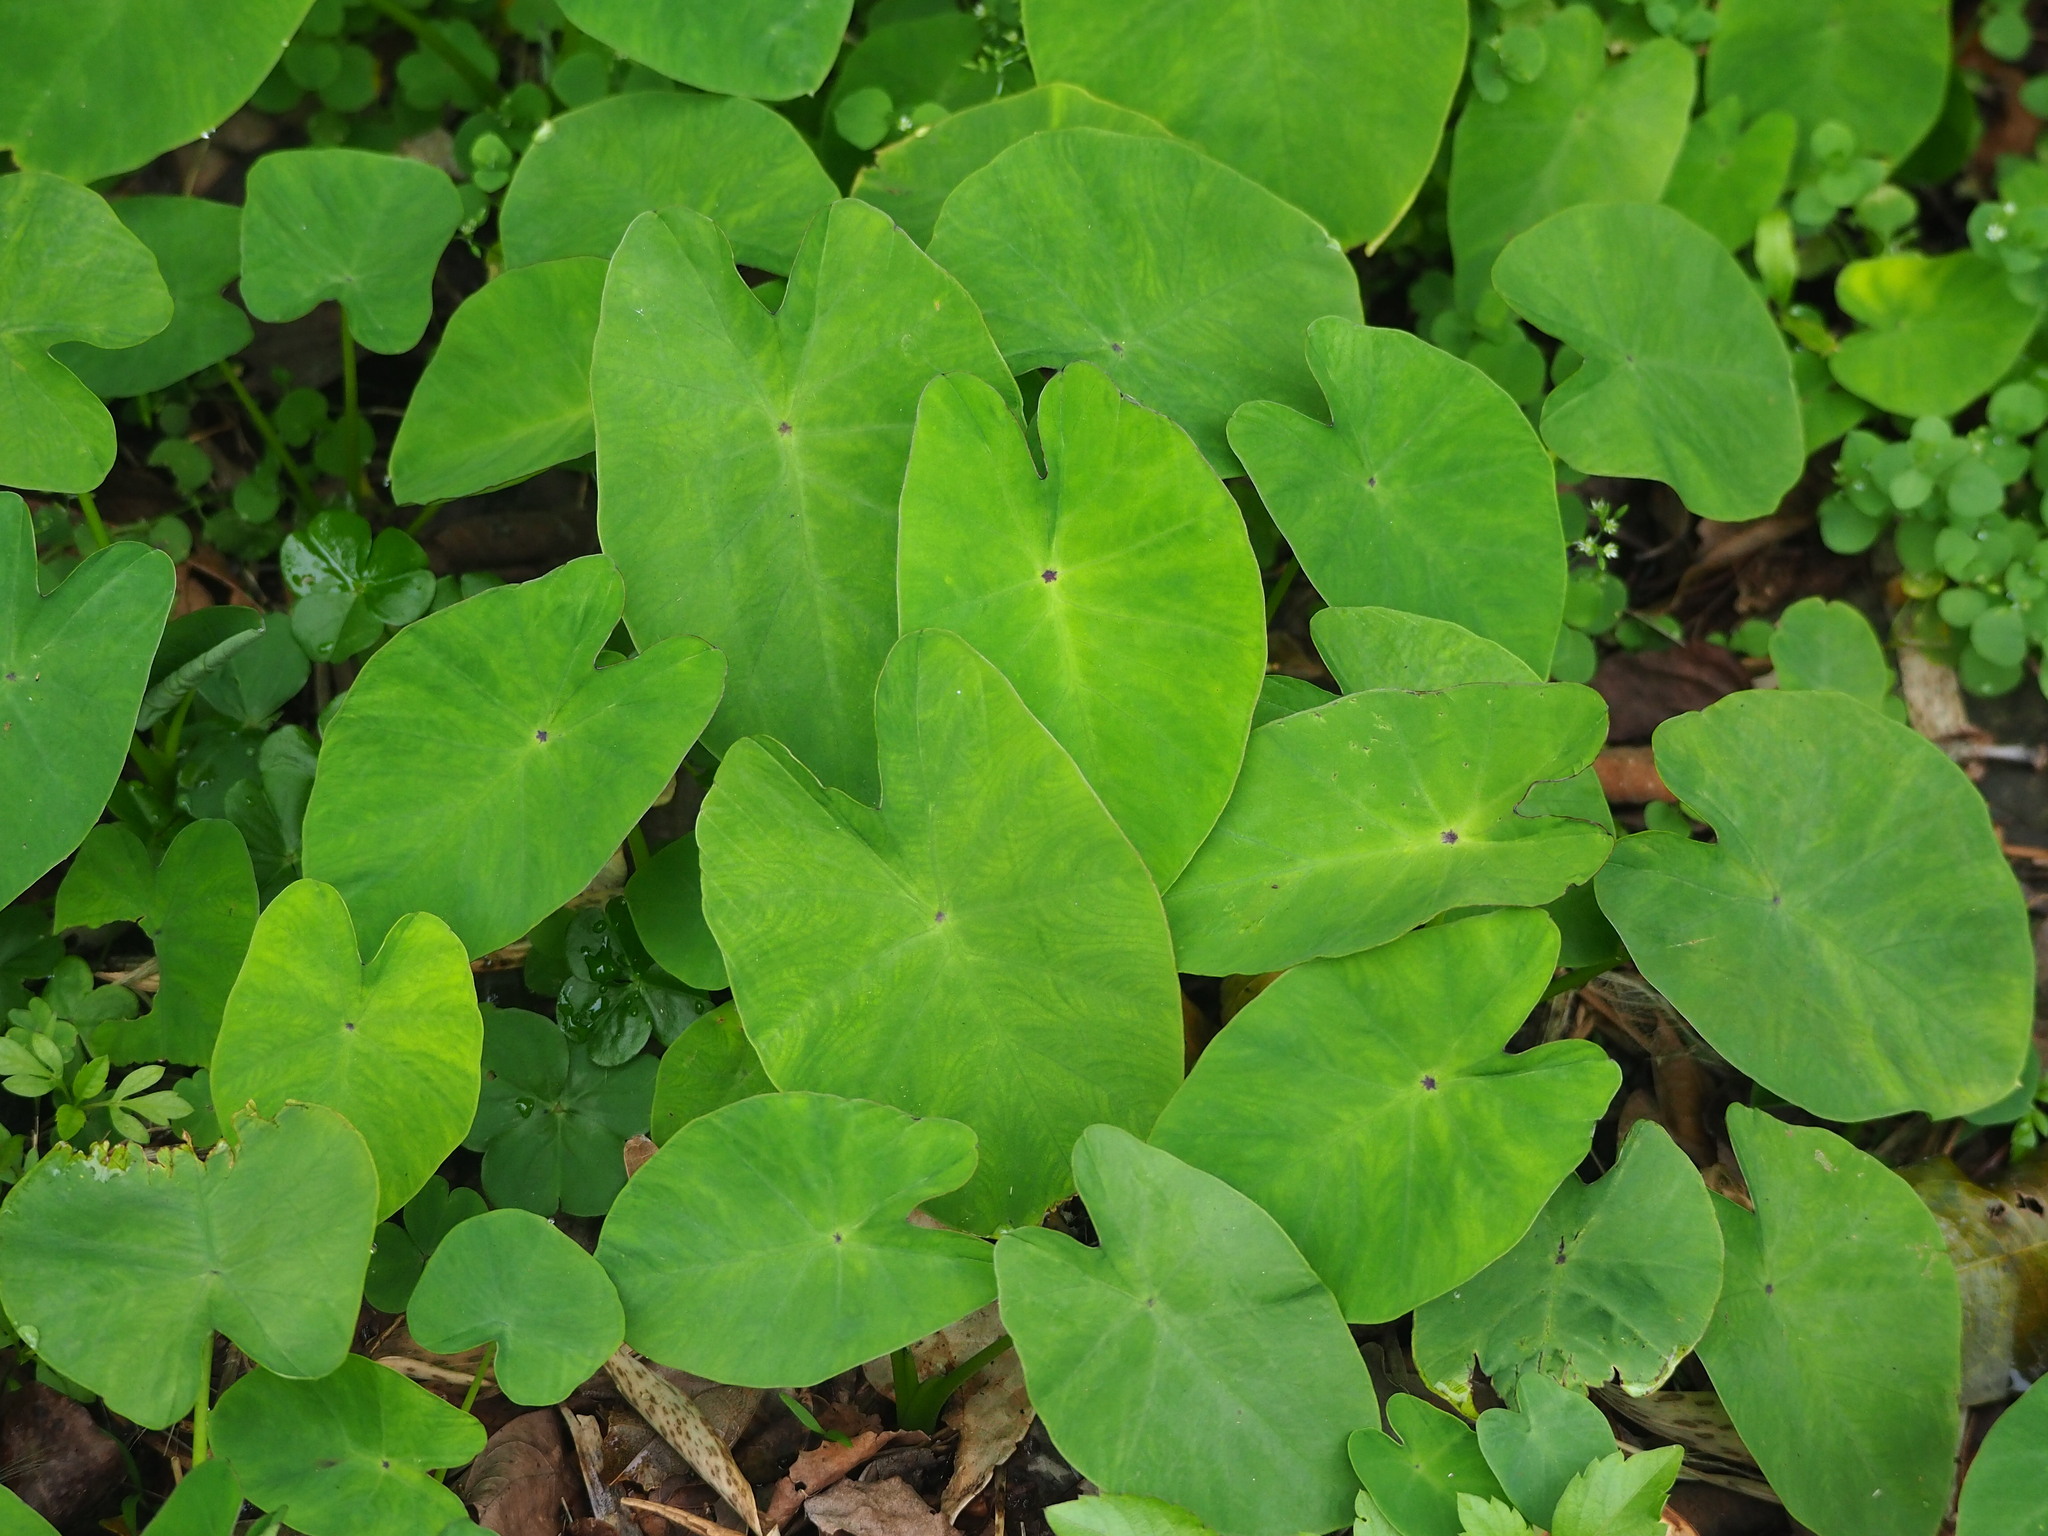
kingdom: Plantae
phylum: Tracheophyta
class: Liliopsida
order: Alismatales
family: Araceae
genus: Colocasia
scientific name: Colocasia esculenta
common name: Taro
